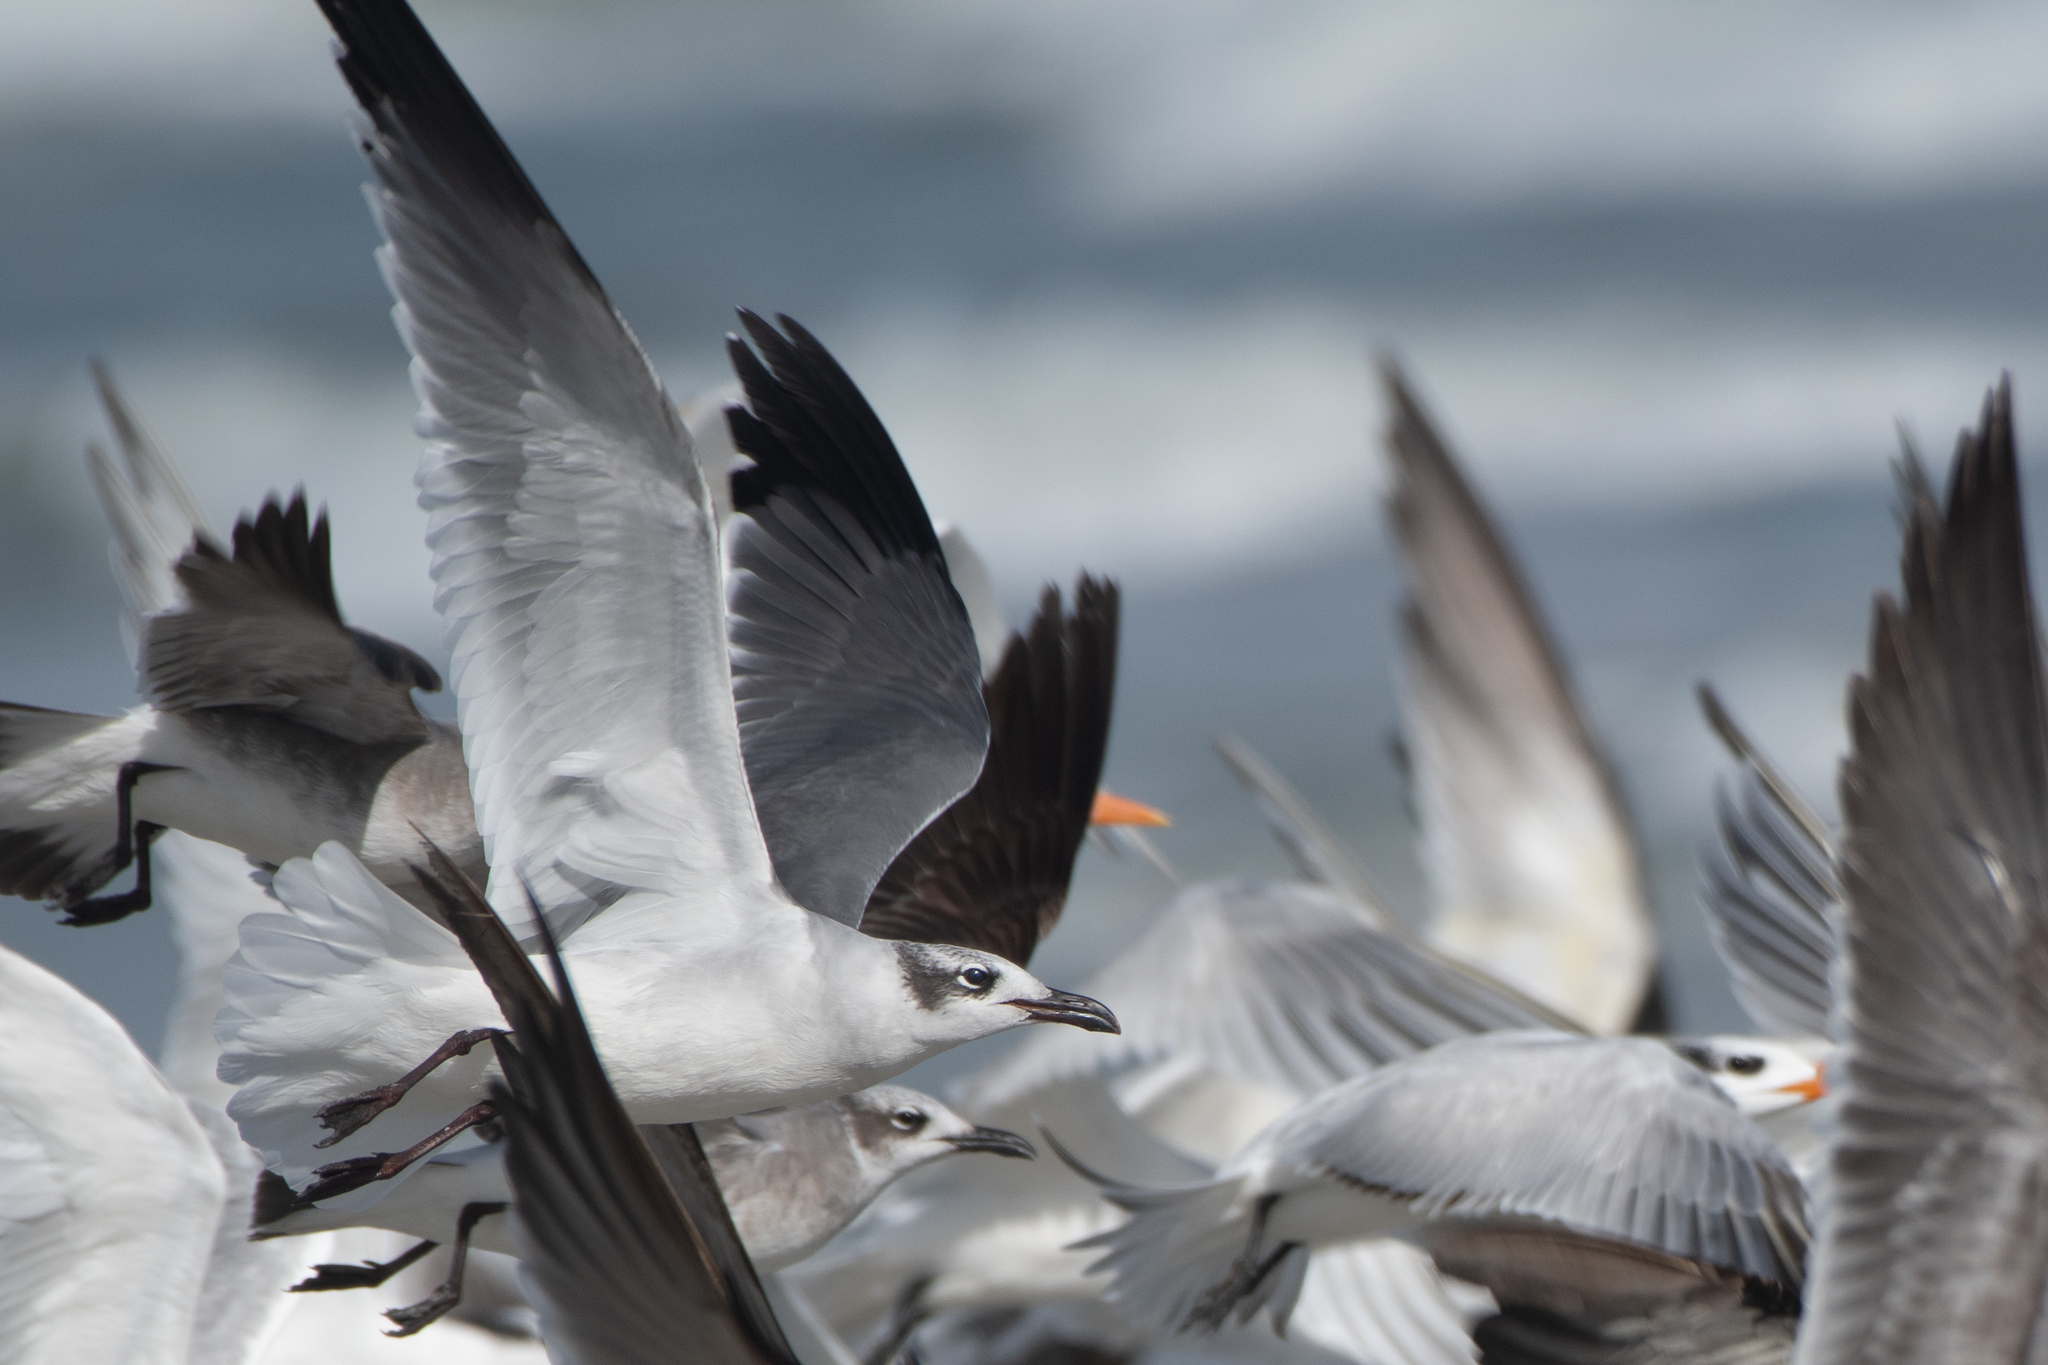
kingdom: Animalia
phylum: Chordata
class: Aves
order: Charadriiformes
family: Laridae
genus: Leucophaeus
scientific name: Leucophaeus atricilla
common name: Laughing gull
